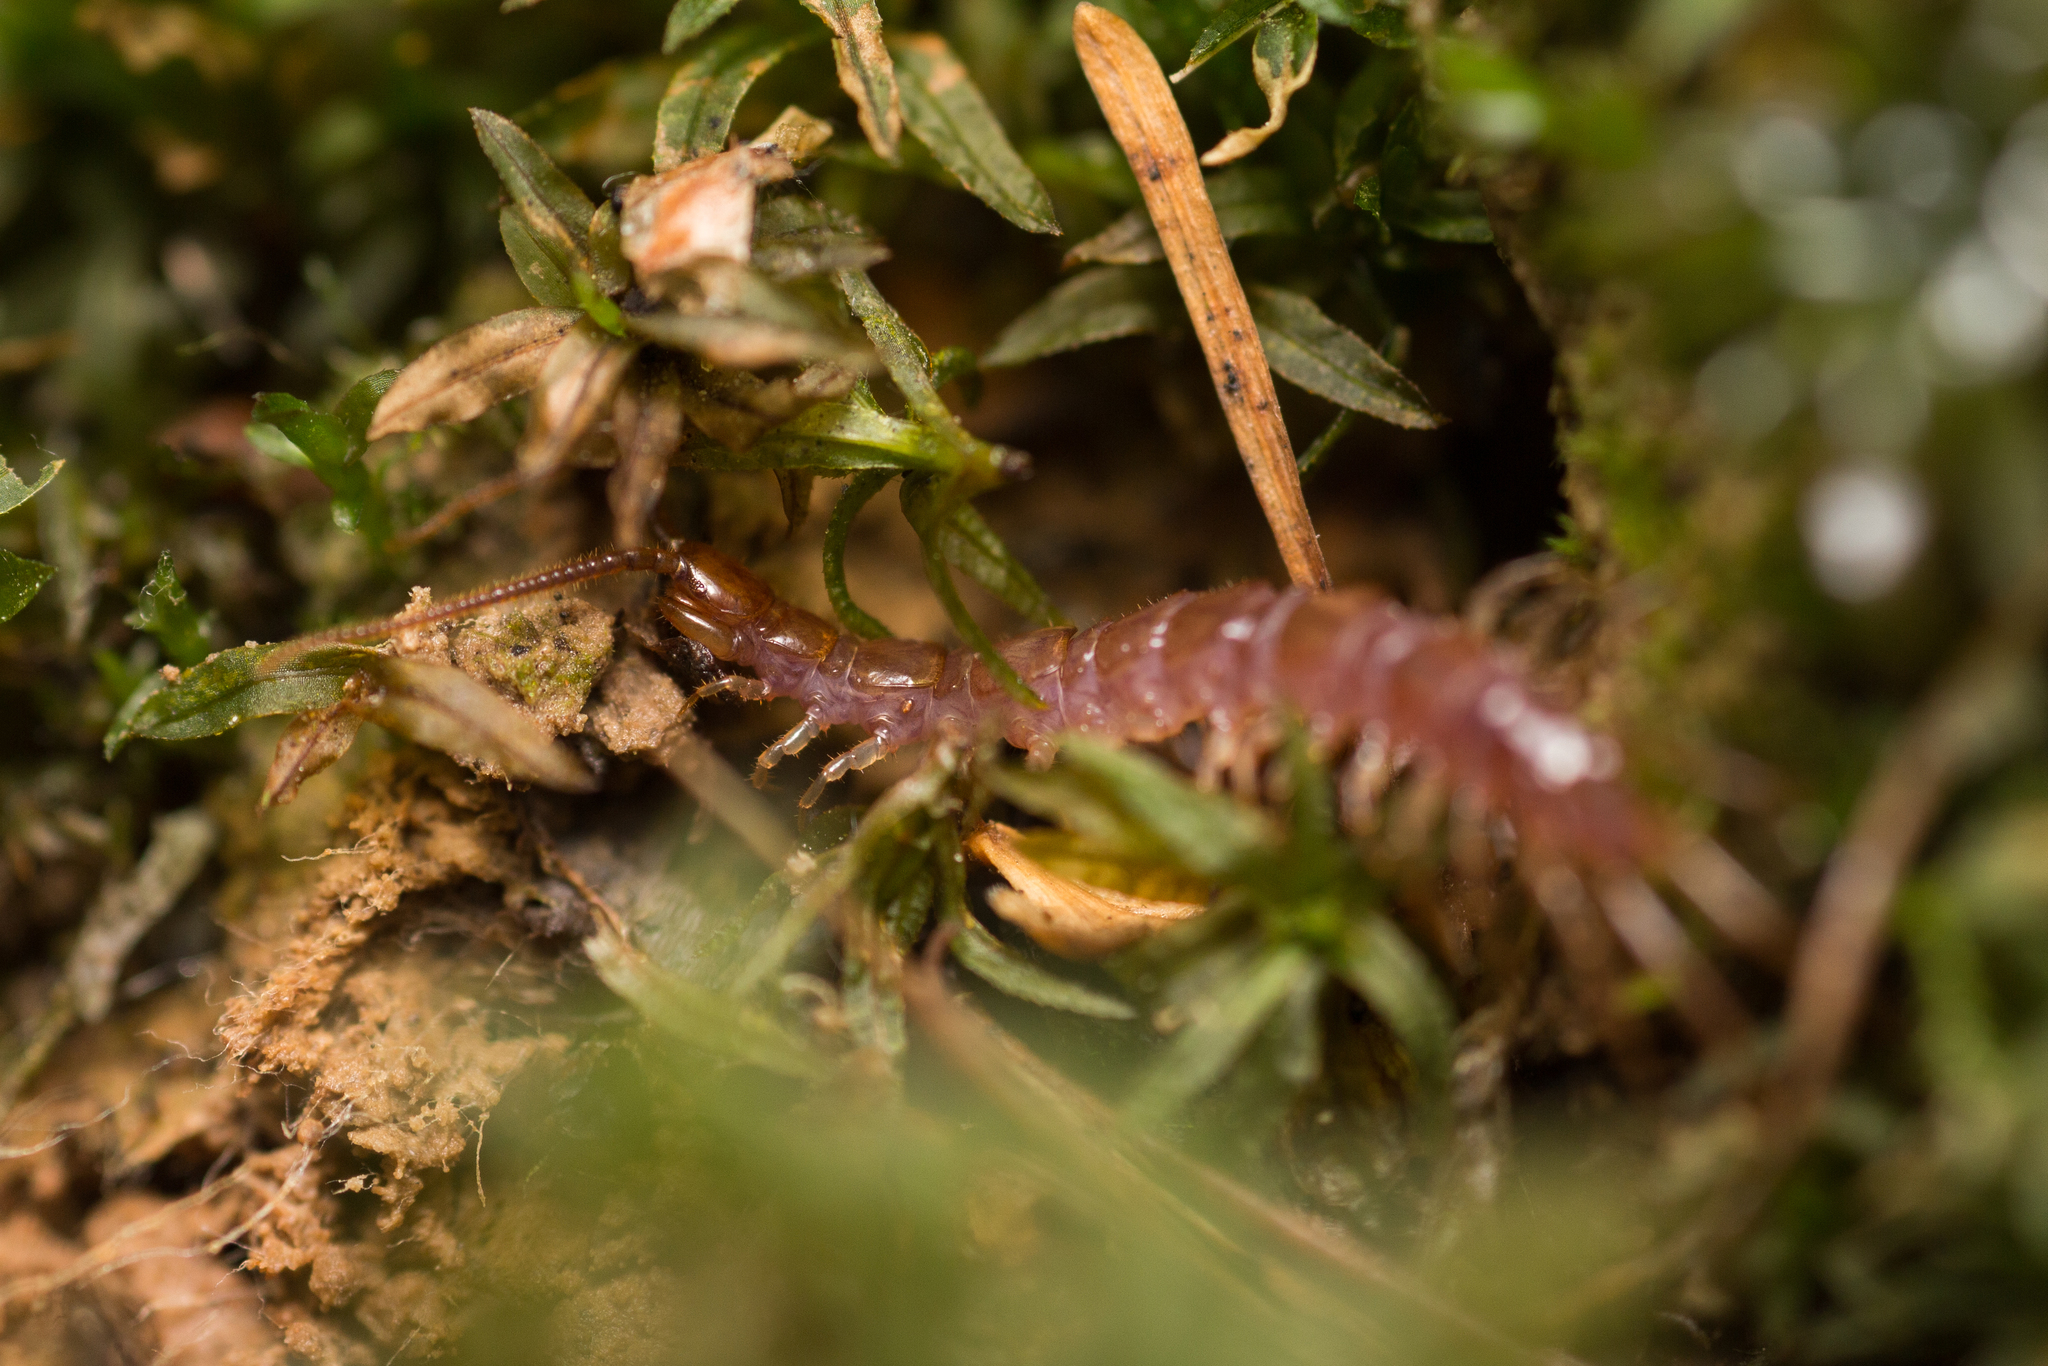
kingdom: Animalia
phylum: Arthropoda
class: Chilopoda
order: Lithobiomorpha
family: Lithobiidae
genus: Lithobius
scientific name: Lithobius forficatus
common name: Centipede
